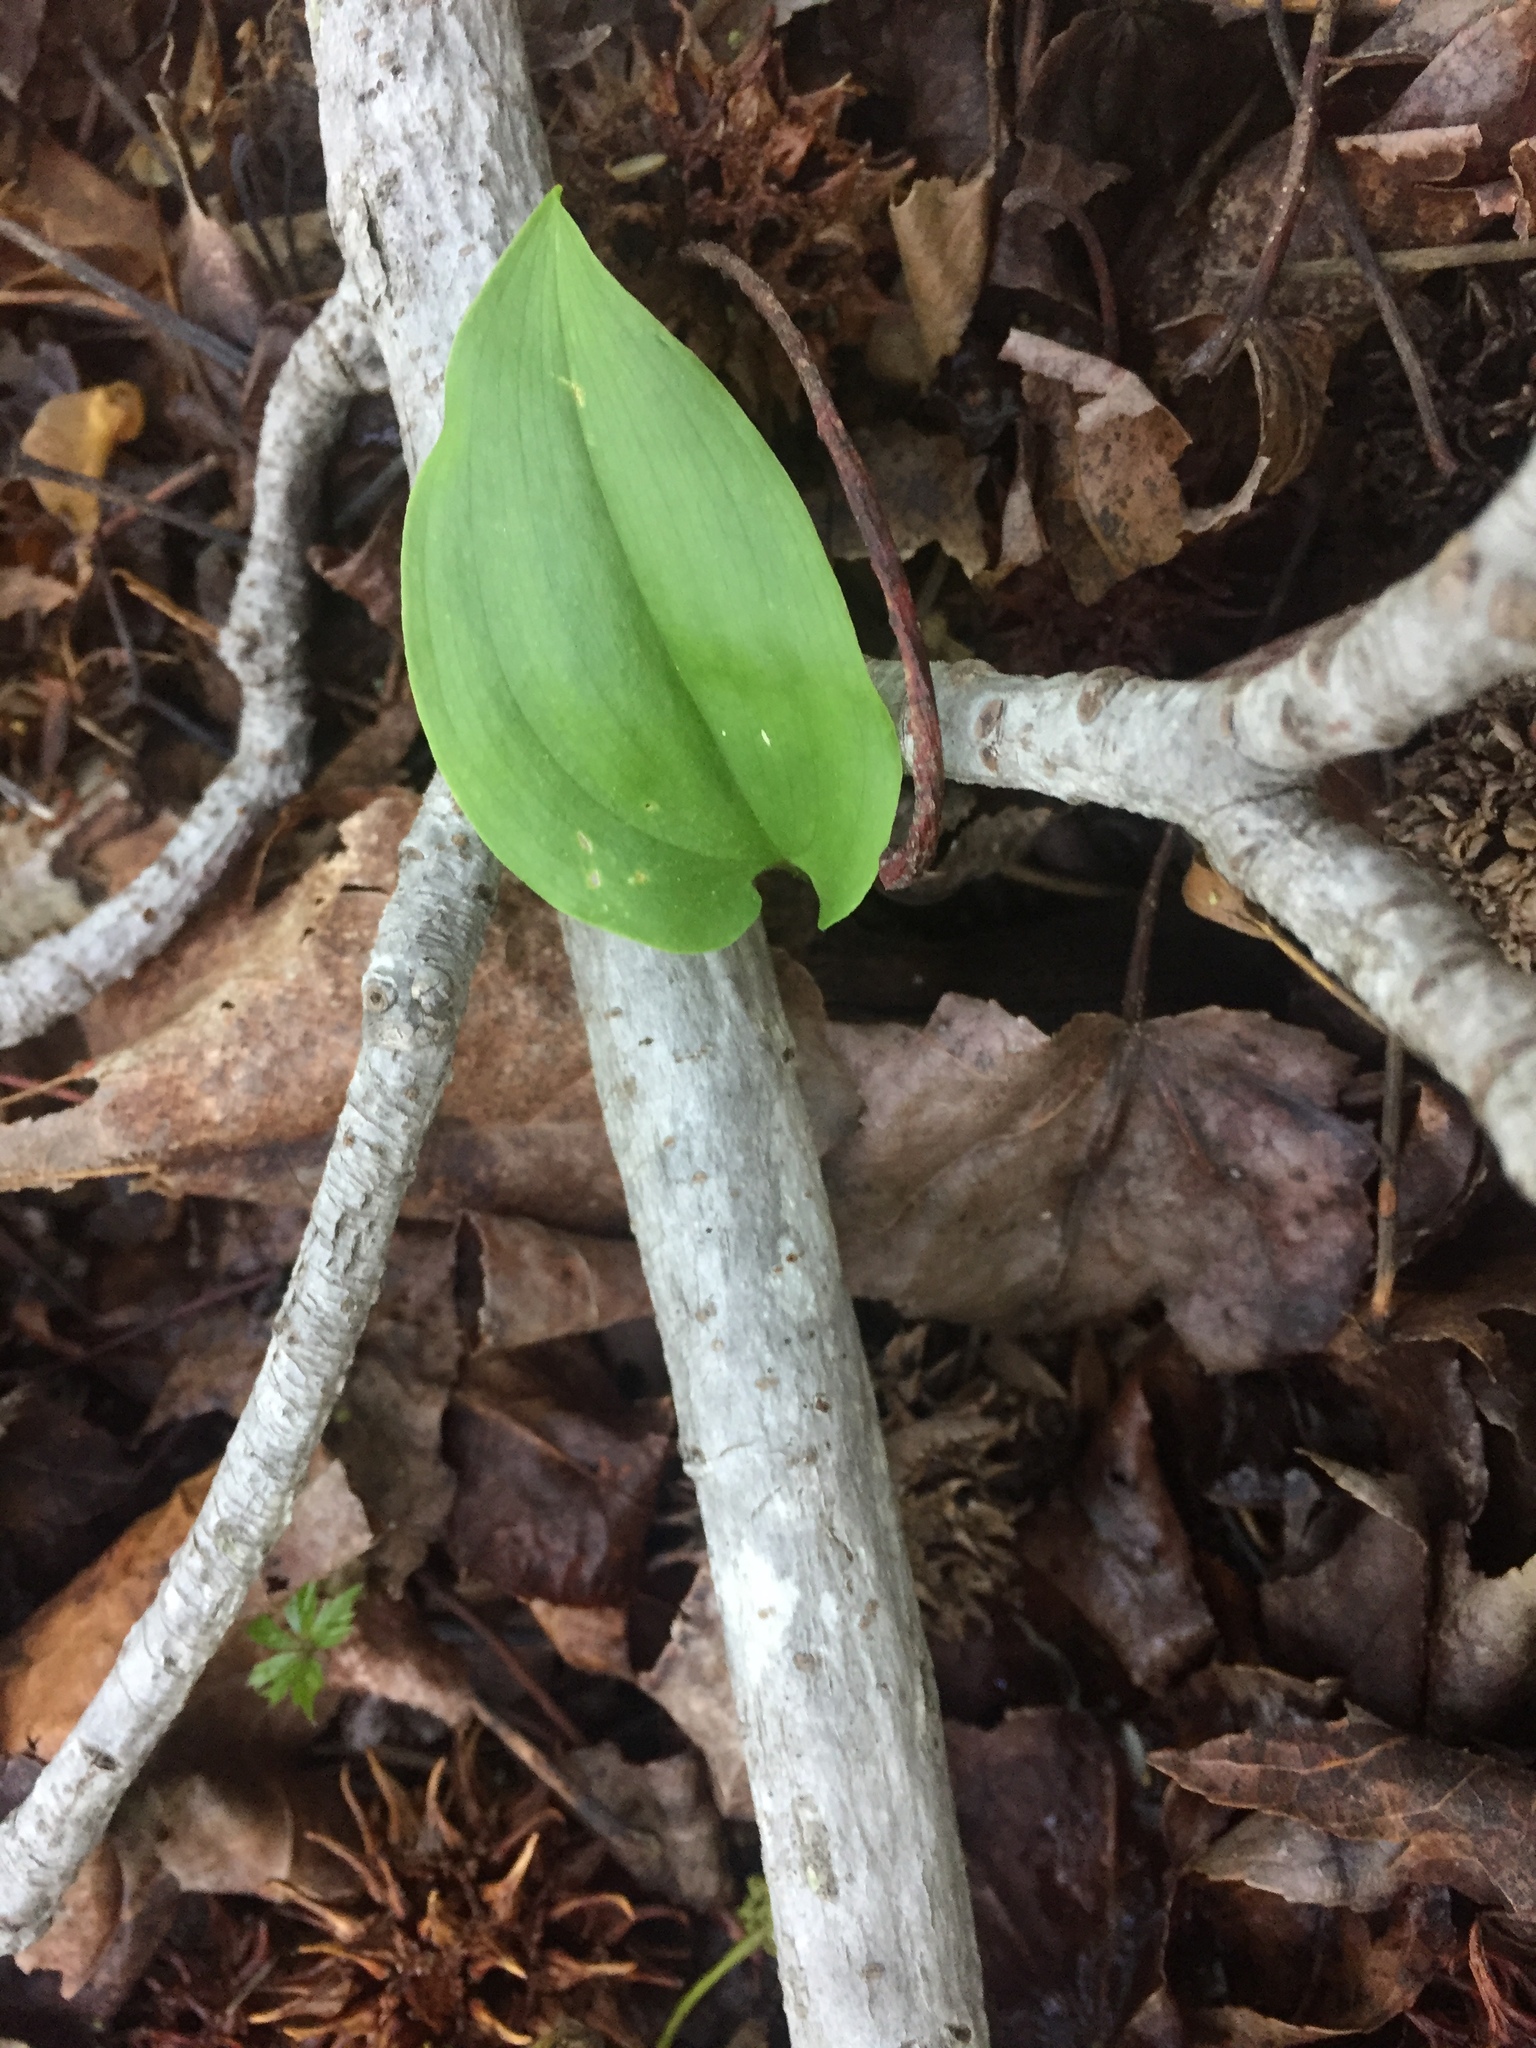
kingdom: Plantae
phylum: Tracheophyta
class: Liliopsida
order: Asparagales
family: Asparagaceae
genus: Maianthemum
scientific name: Maianthemum canadense
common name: False lily-of-the-valley
